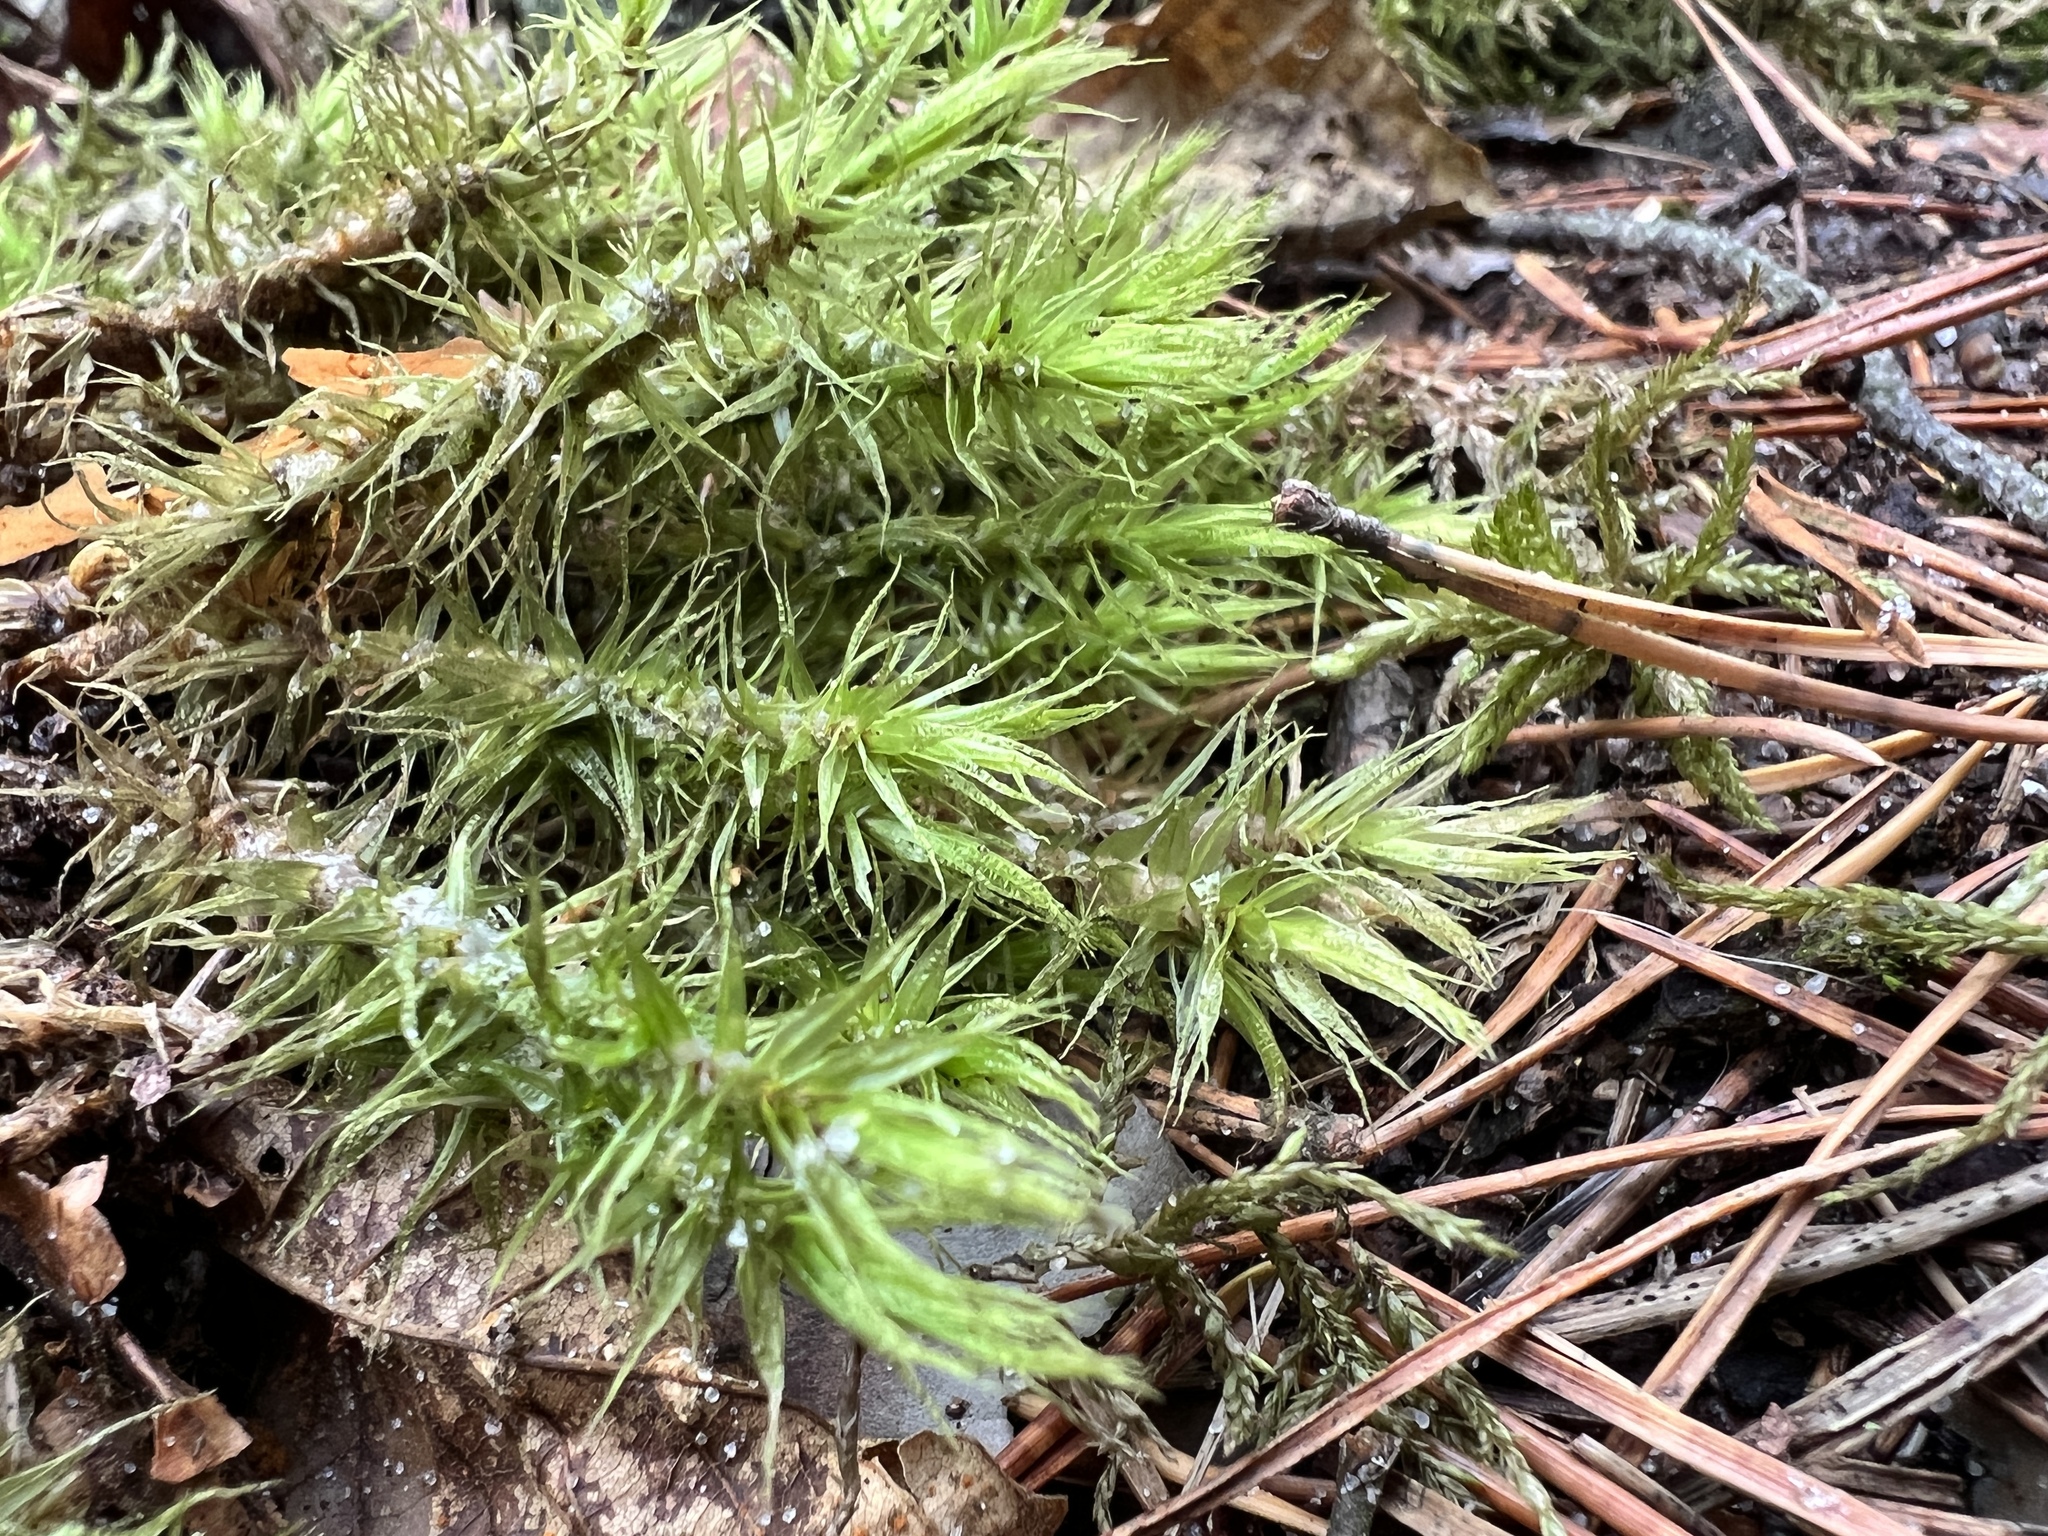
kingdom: Plantae
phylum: Bryophyta
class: Bryopsida
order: Dicranales
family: Dicranaceae
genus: Dicranum
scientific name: Dicranum polysetum
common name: Rugose fork-moss
